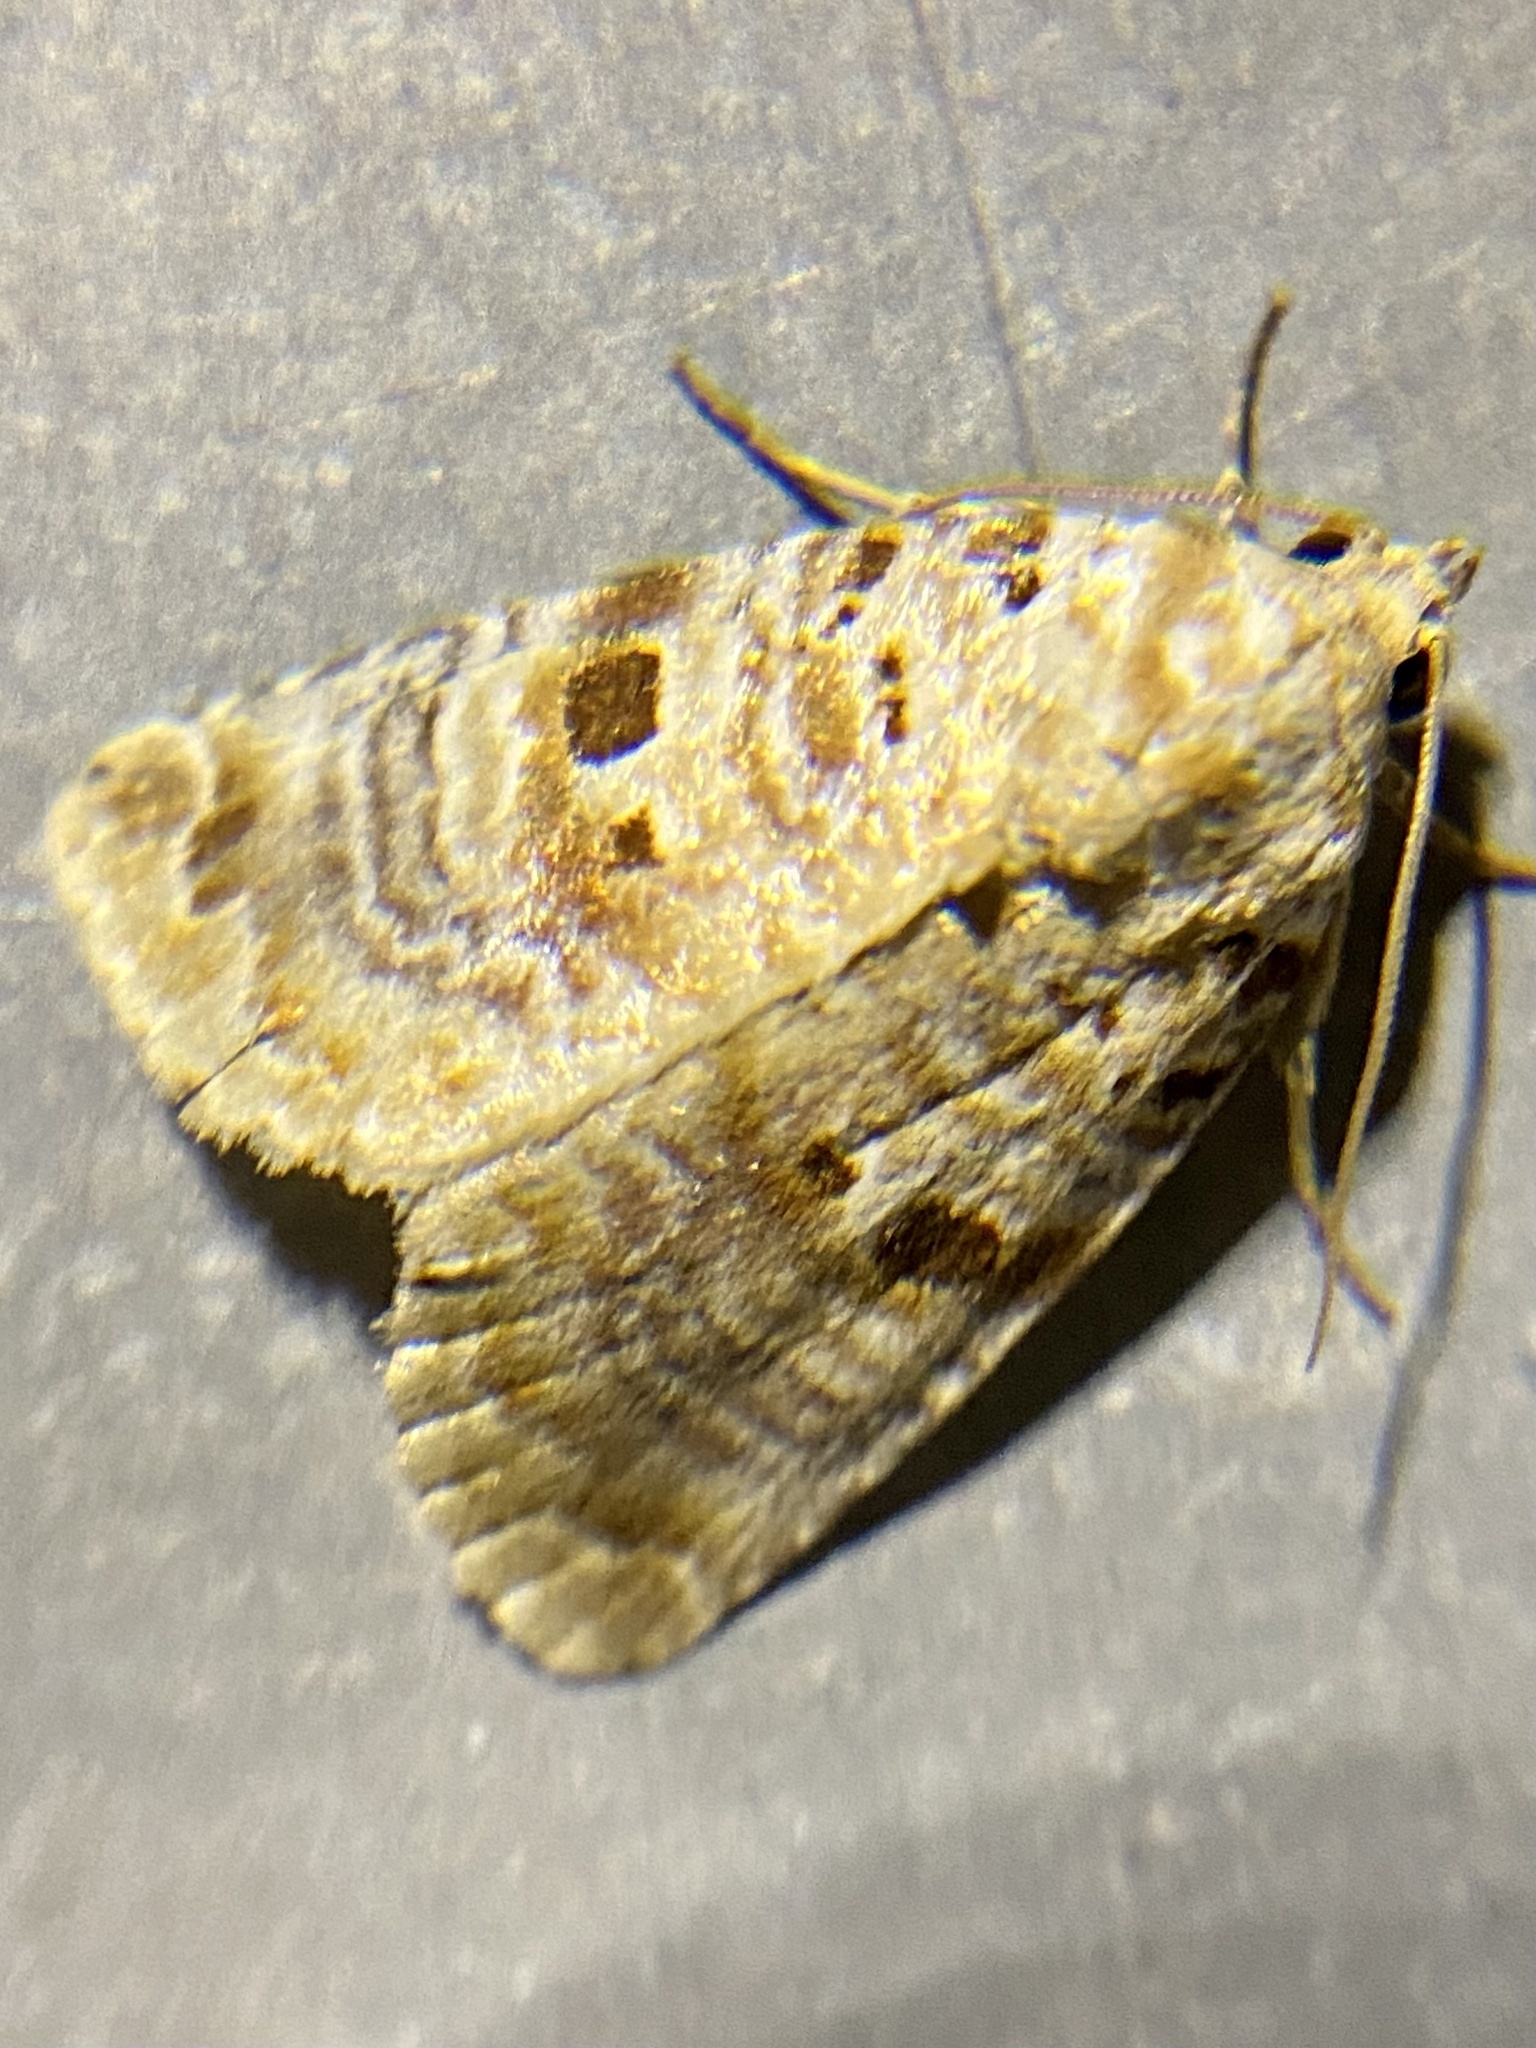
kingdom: Animalia
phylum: Arthropoda
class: Insecta
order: Lepidoptera
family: Noctuidae
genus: Diastema
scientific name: Diastema tigris
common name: Lantana moth
